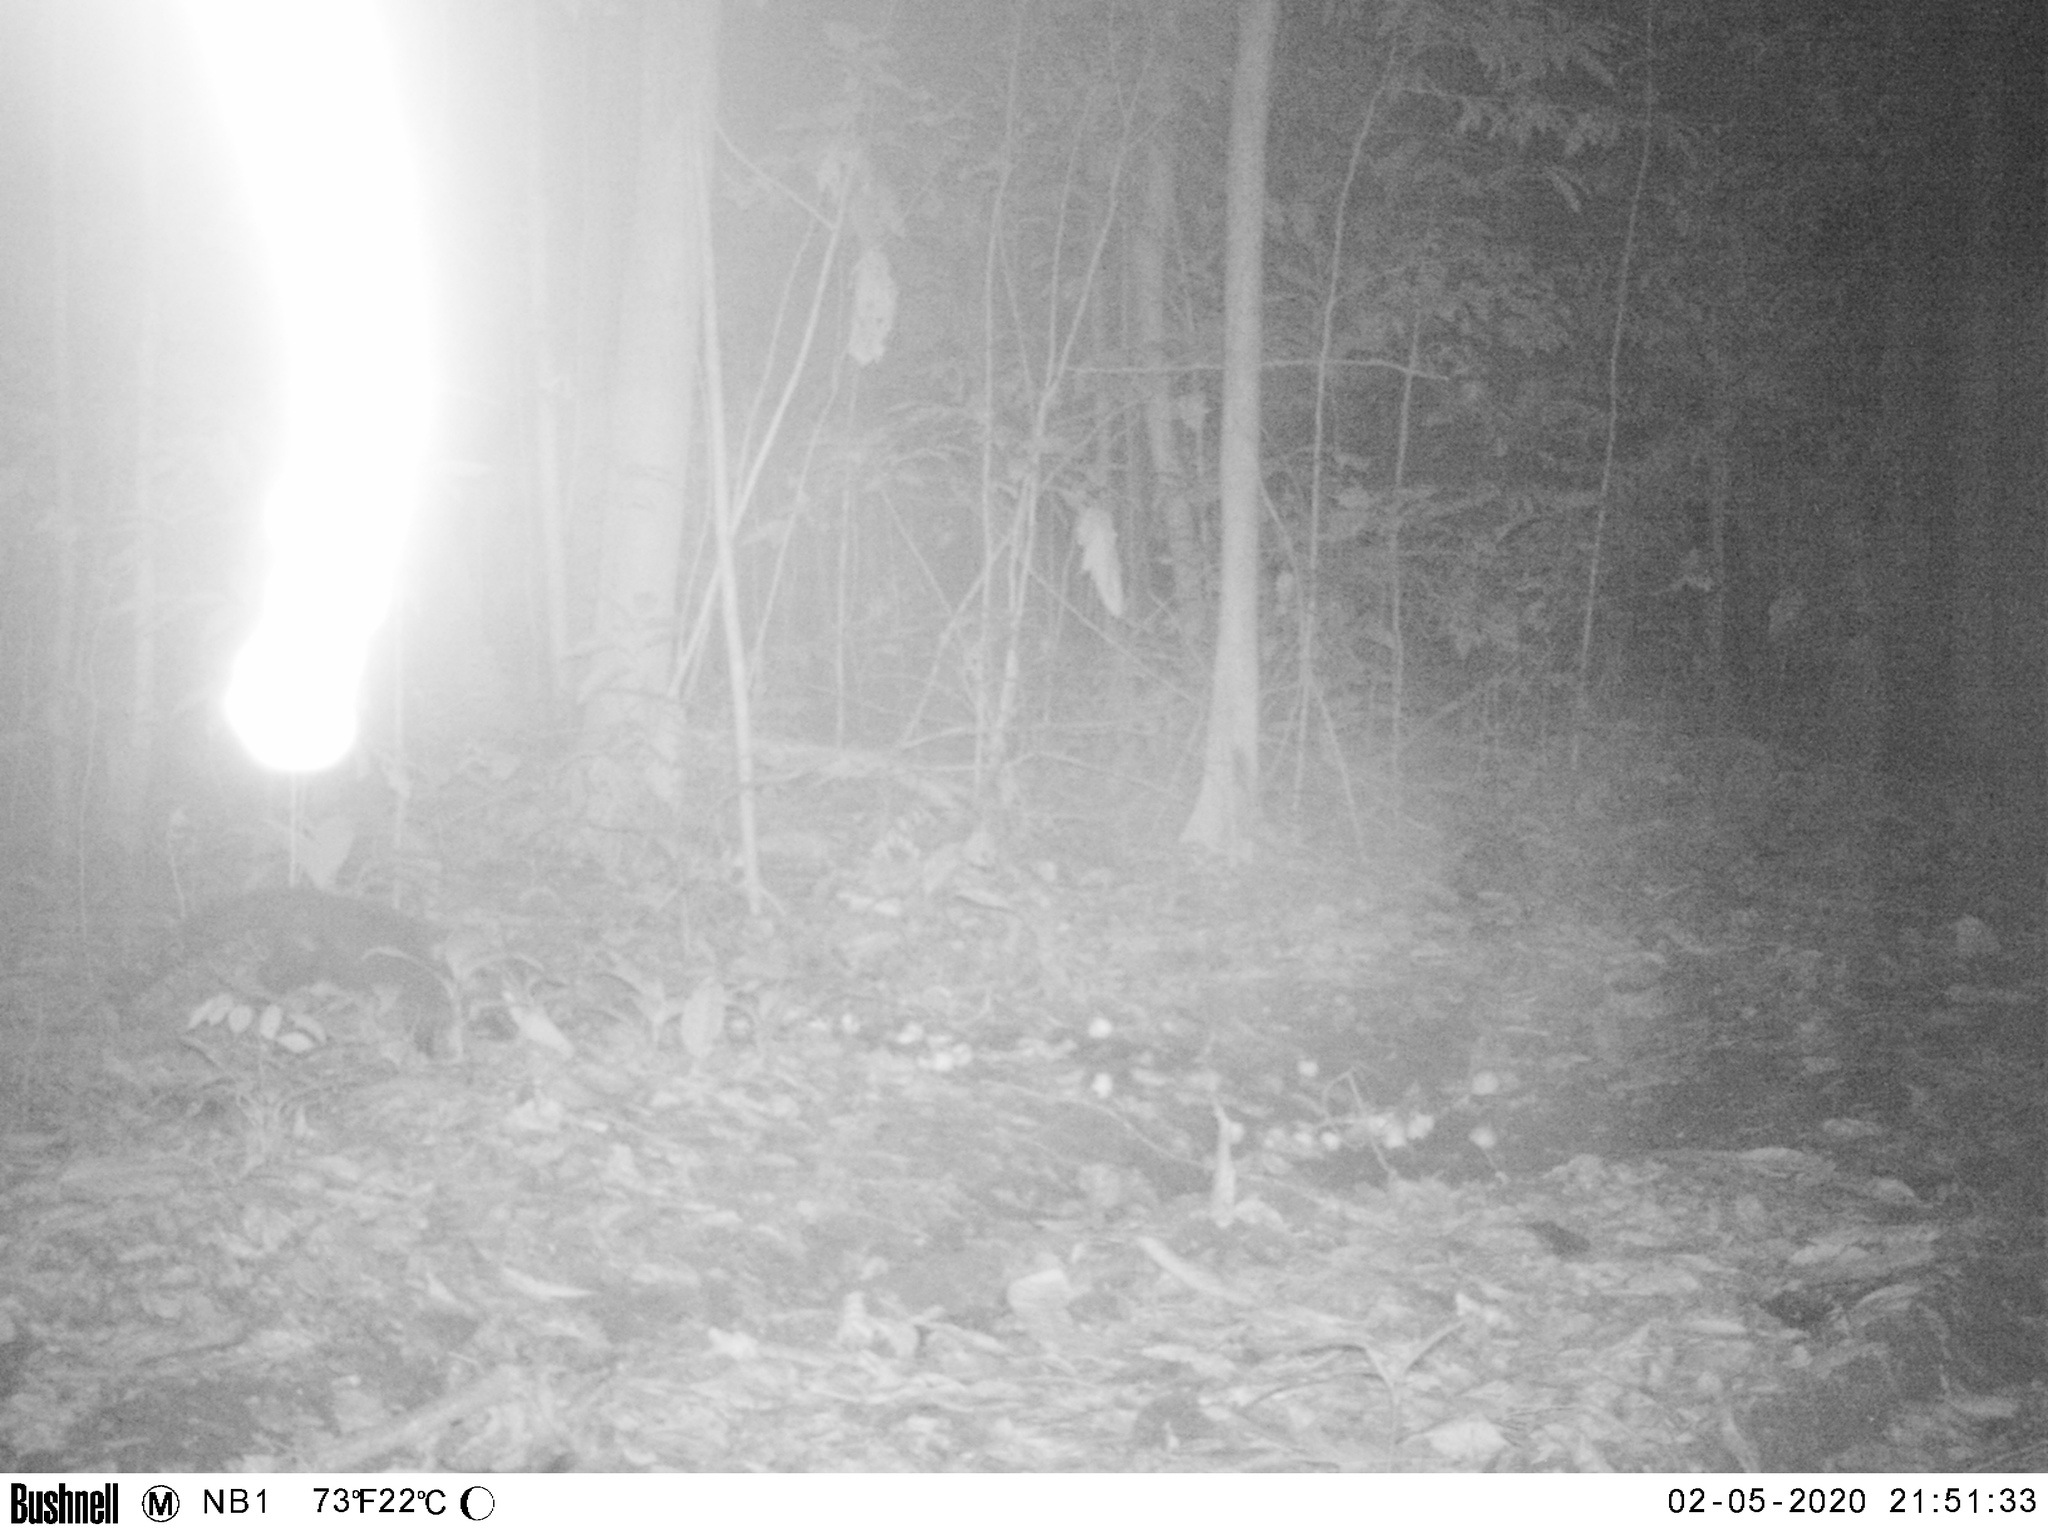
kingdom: Animalia
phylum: Chordata
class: Mammalia
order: Carnivora
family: Mustelidae
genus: Eira
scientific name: Eira barbara
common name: Tayra
